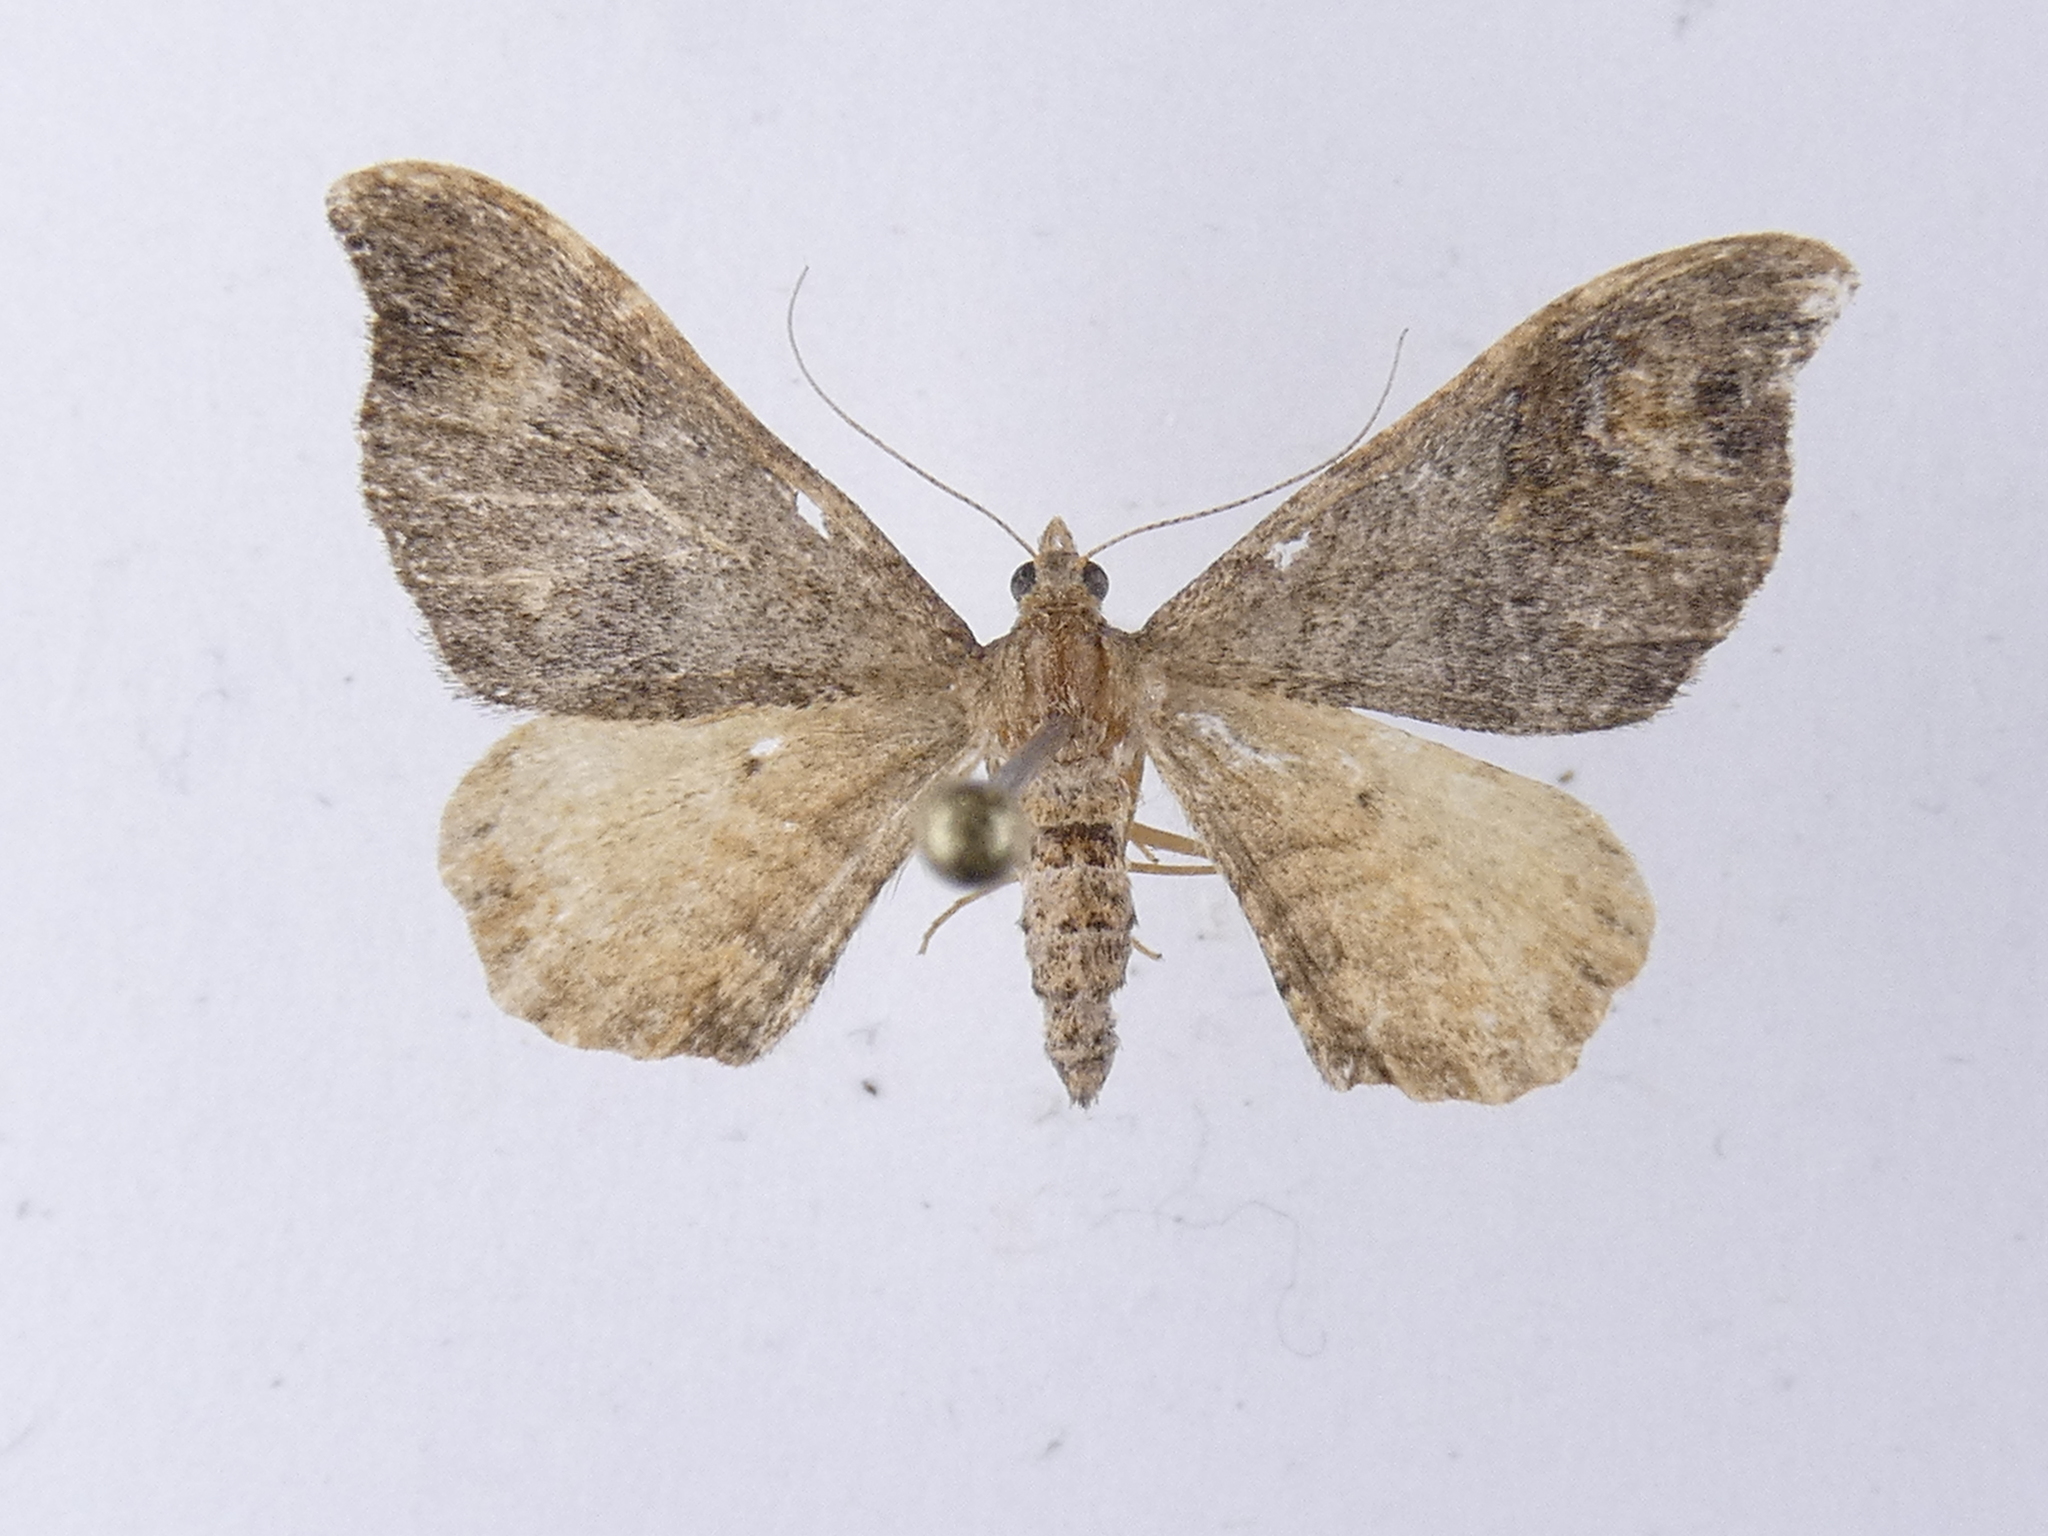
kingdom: Animalia
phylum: Arthropoda
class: Insecta
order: Lepidoptera
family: Geometridae
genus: Homodotis
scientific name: Homodotis megaspilata
